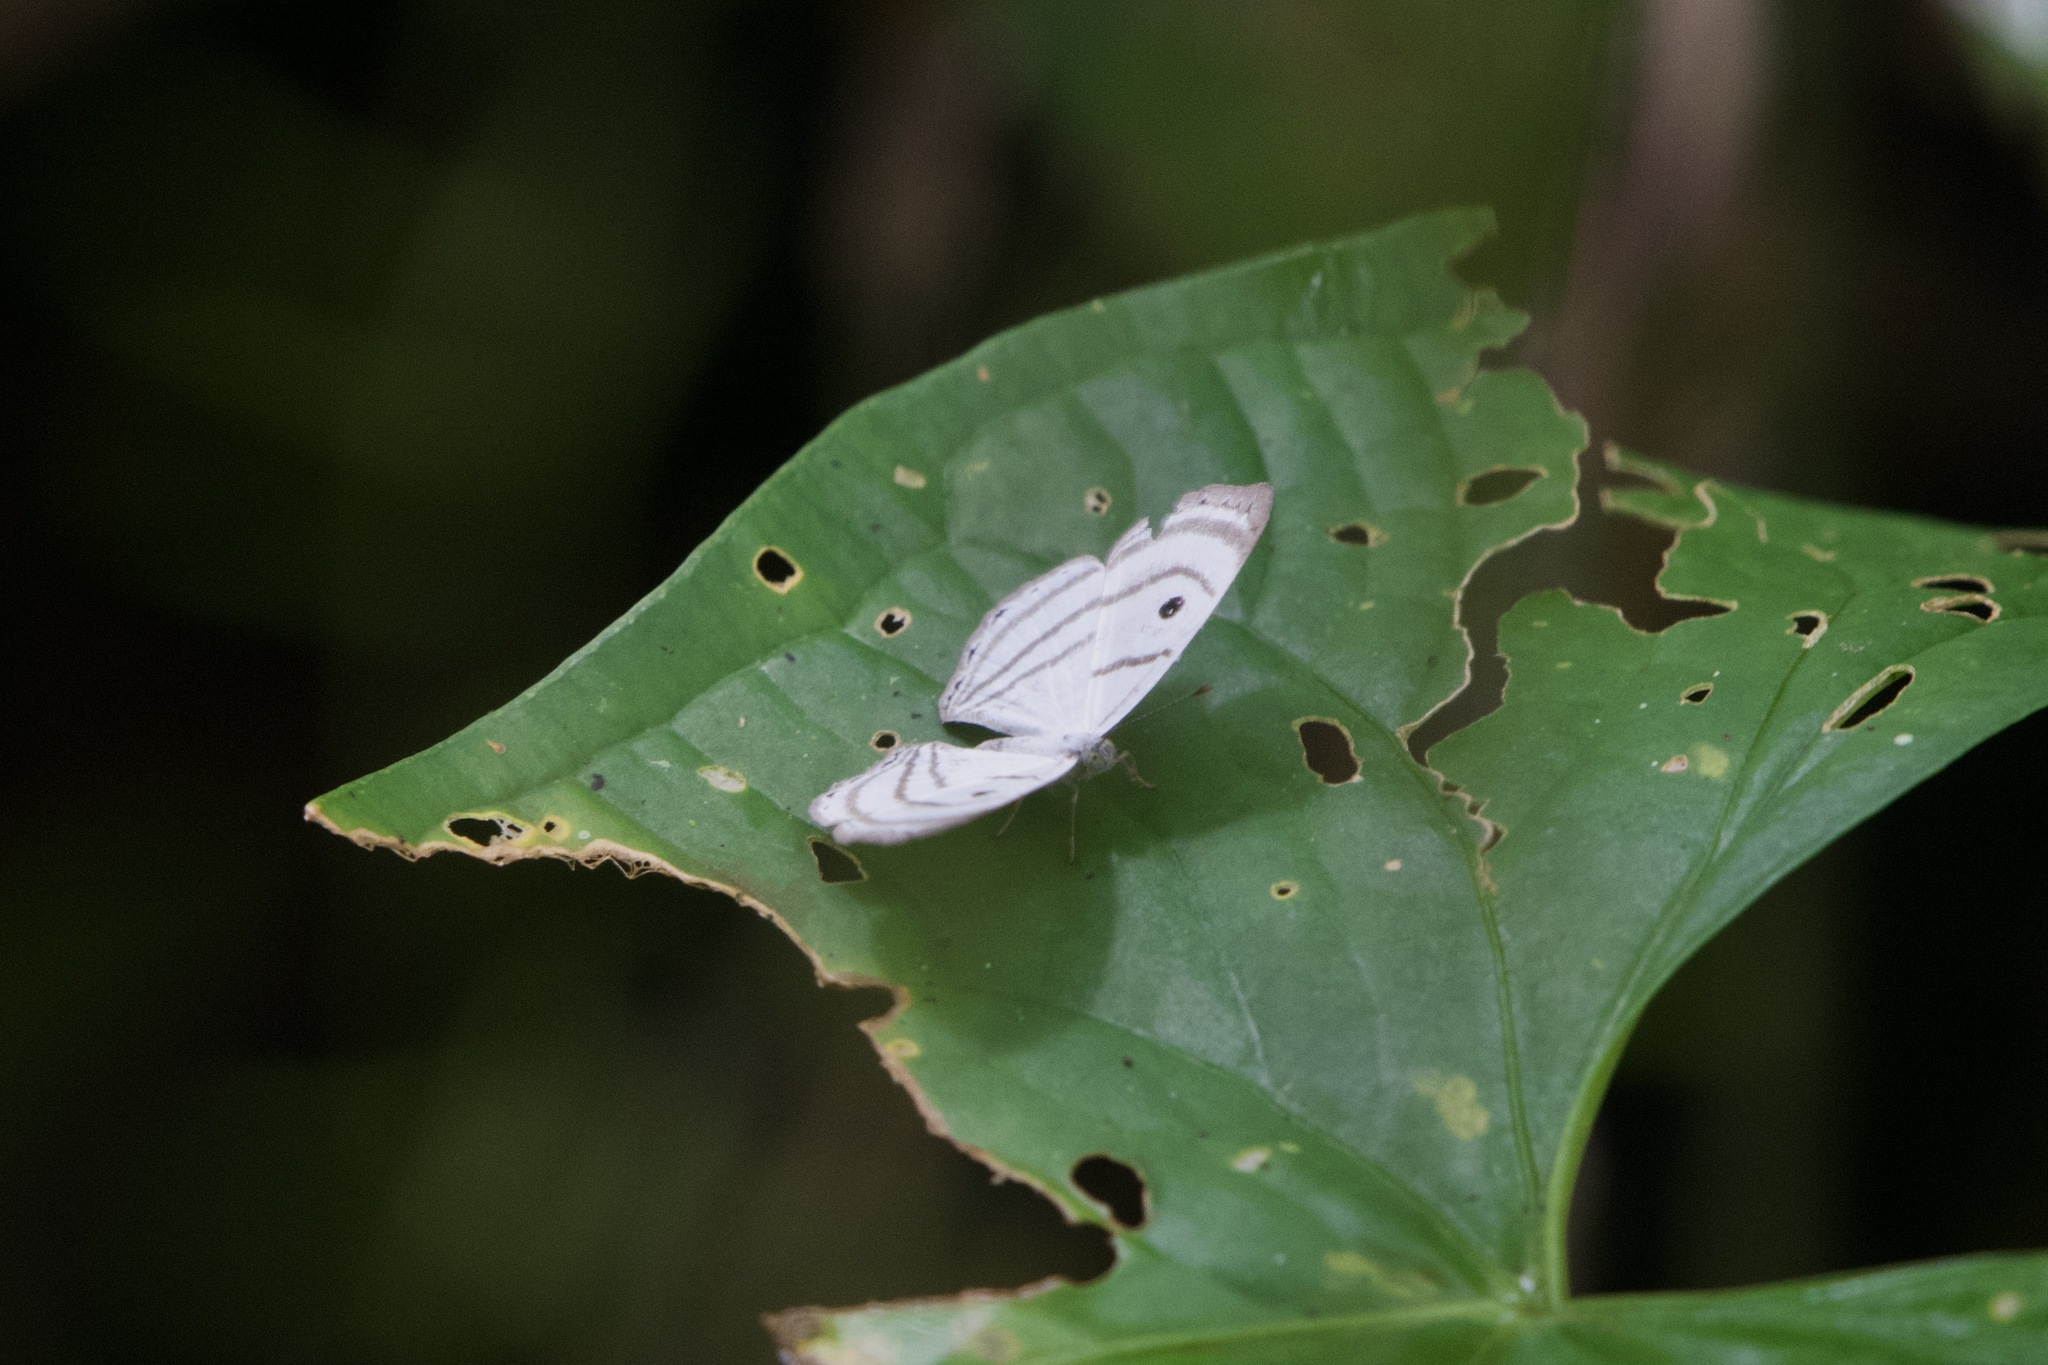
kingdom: Animalia
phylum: Arthropoda
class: Insecta
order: Lepidoptera
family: Riodinidae
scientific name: Riodinidae
